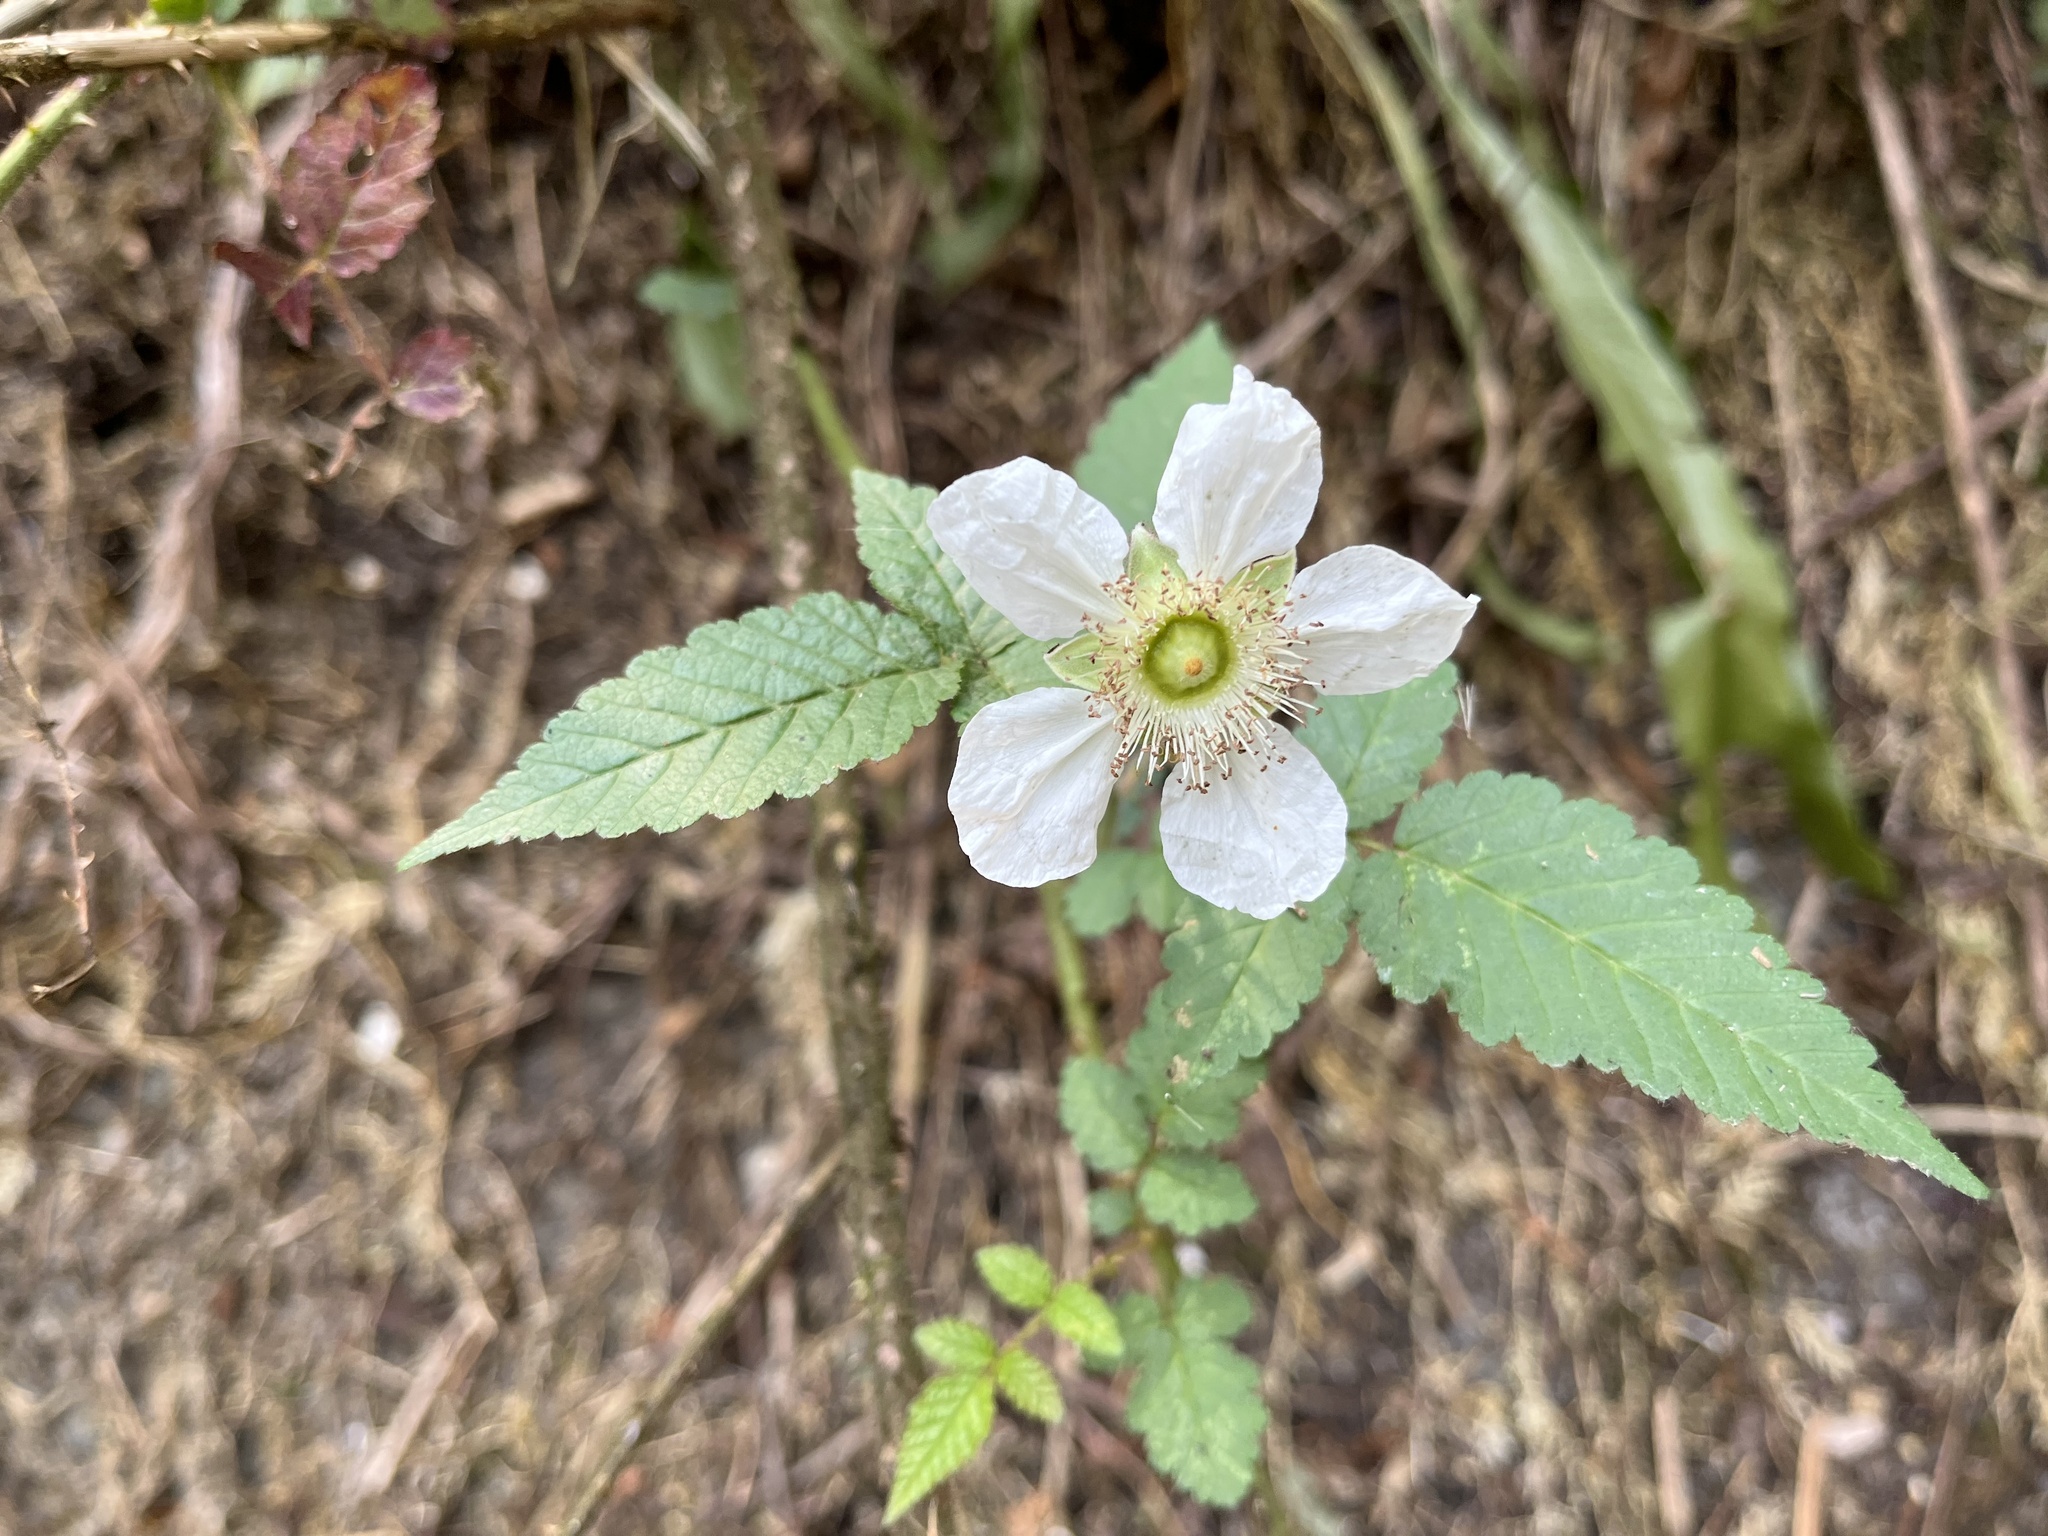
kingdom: Plantae
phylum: Tracheophyta
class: Magnoliopsida
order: Rosales
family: Rosaceae
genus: Rubus
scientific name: Rubus croceacanthus
